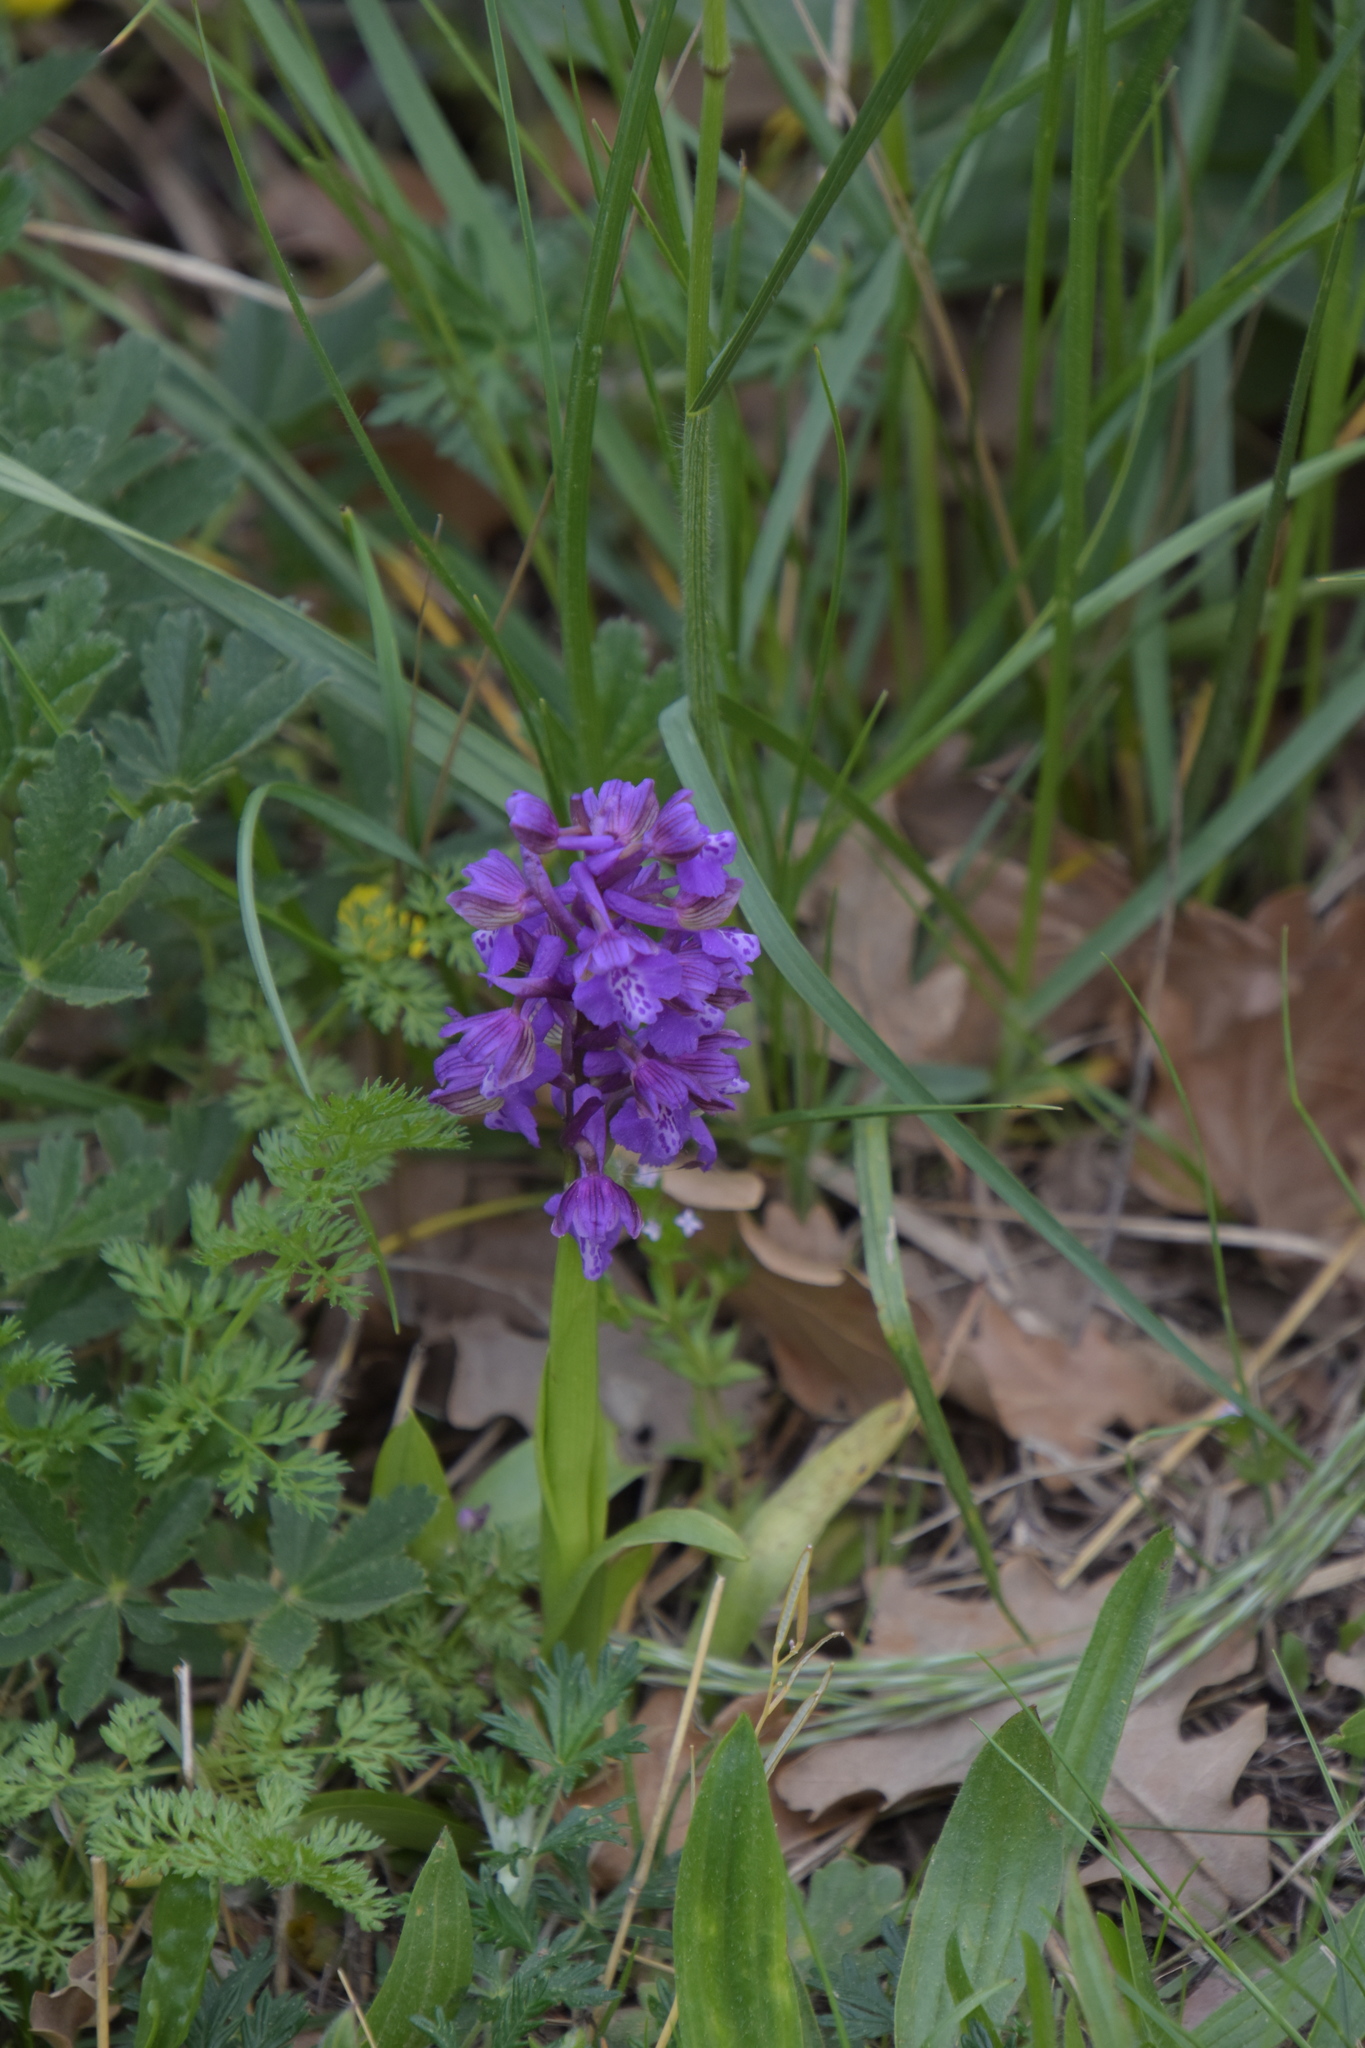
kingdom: Plantae
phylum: Tracheophyta
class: Liliopsida
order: Asparagales
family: Orchidaceae
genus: Anacamptis
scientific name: Anacamptis morio
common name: Green-winged orchid
